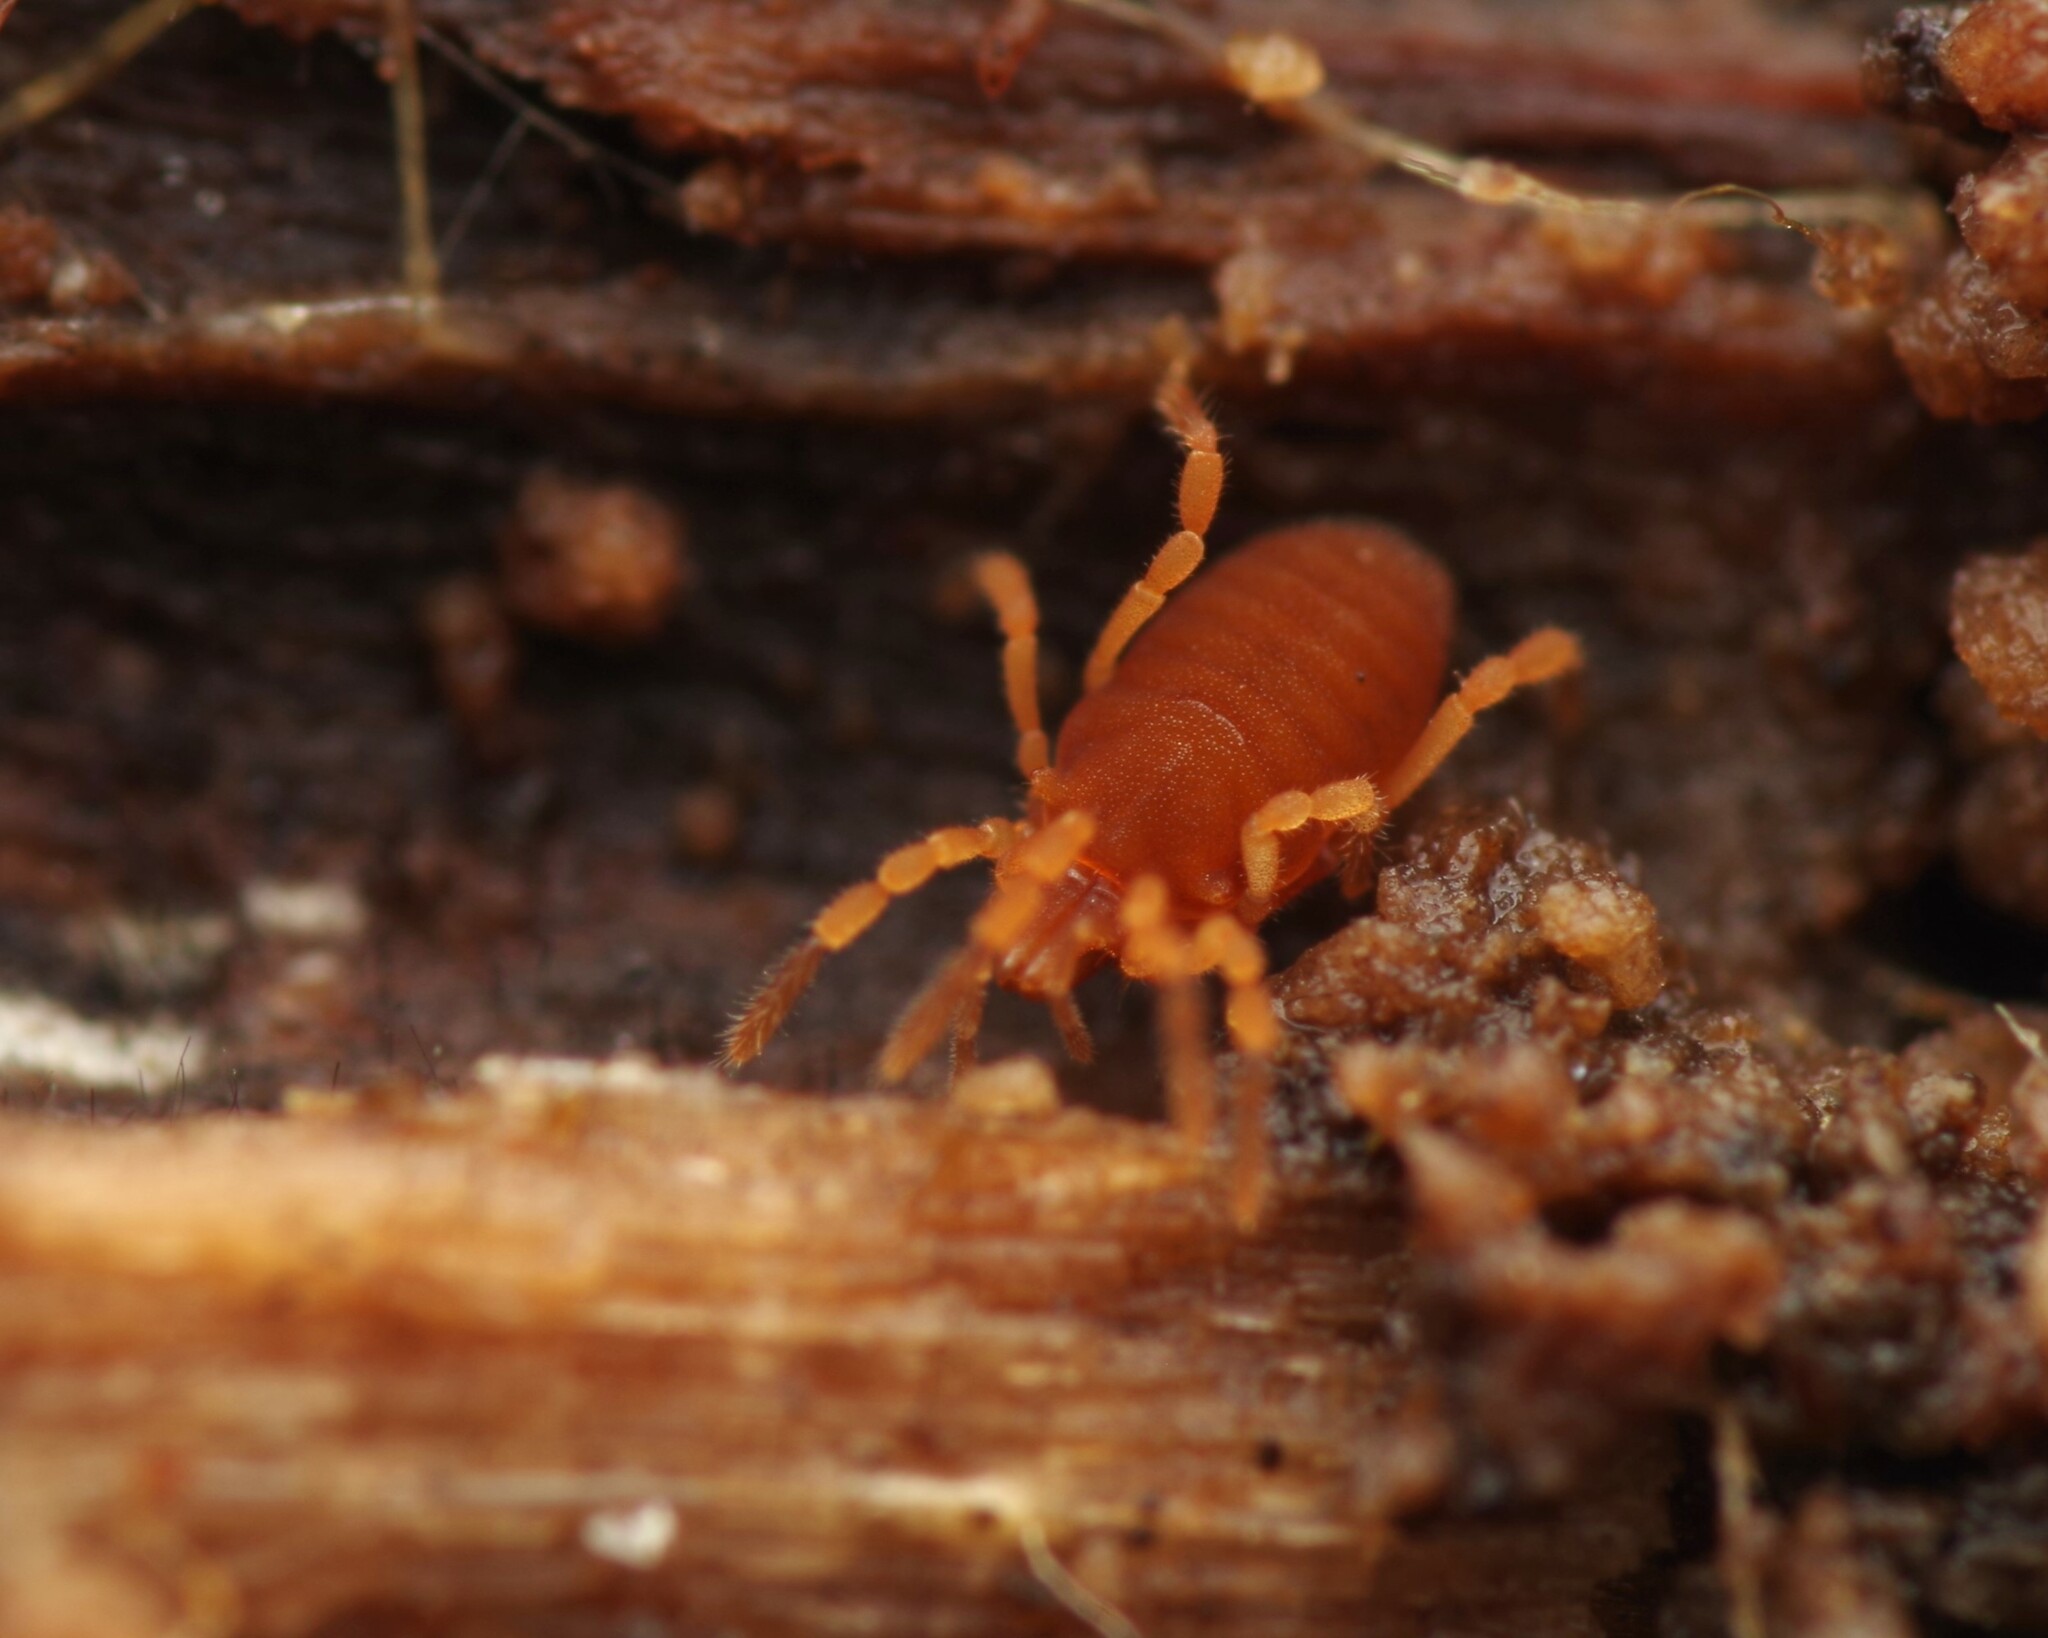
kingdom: Animalia
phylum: Arthropoda
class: Arachnida
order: Opiliones
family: Sironidae
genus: Siro
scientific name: Siro rubens
